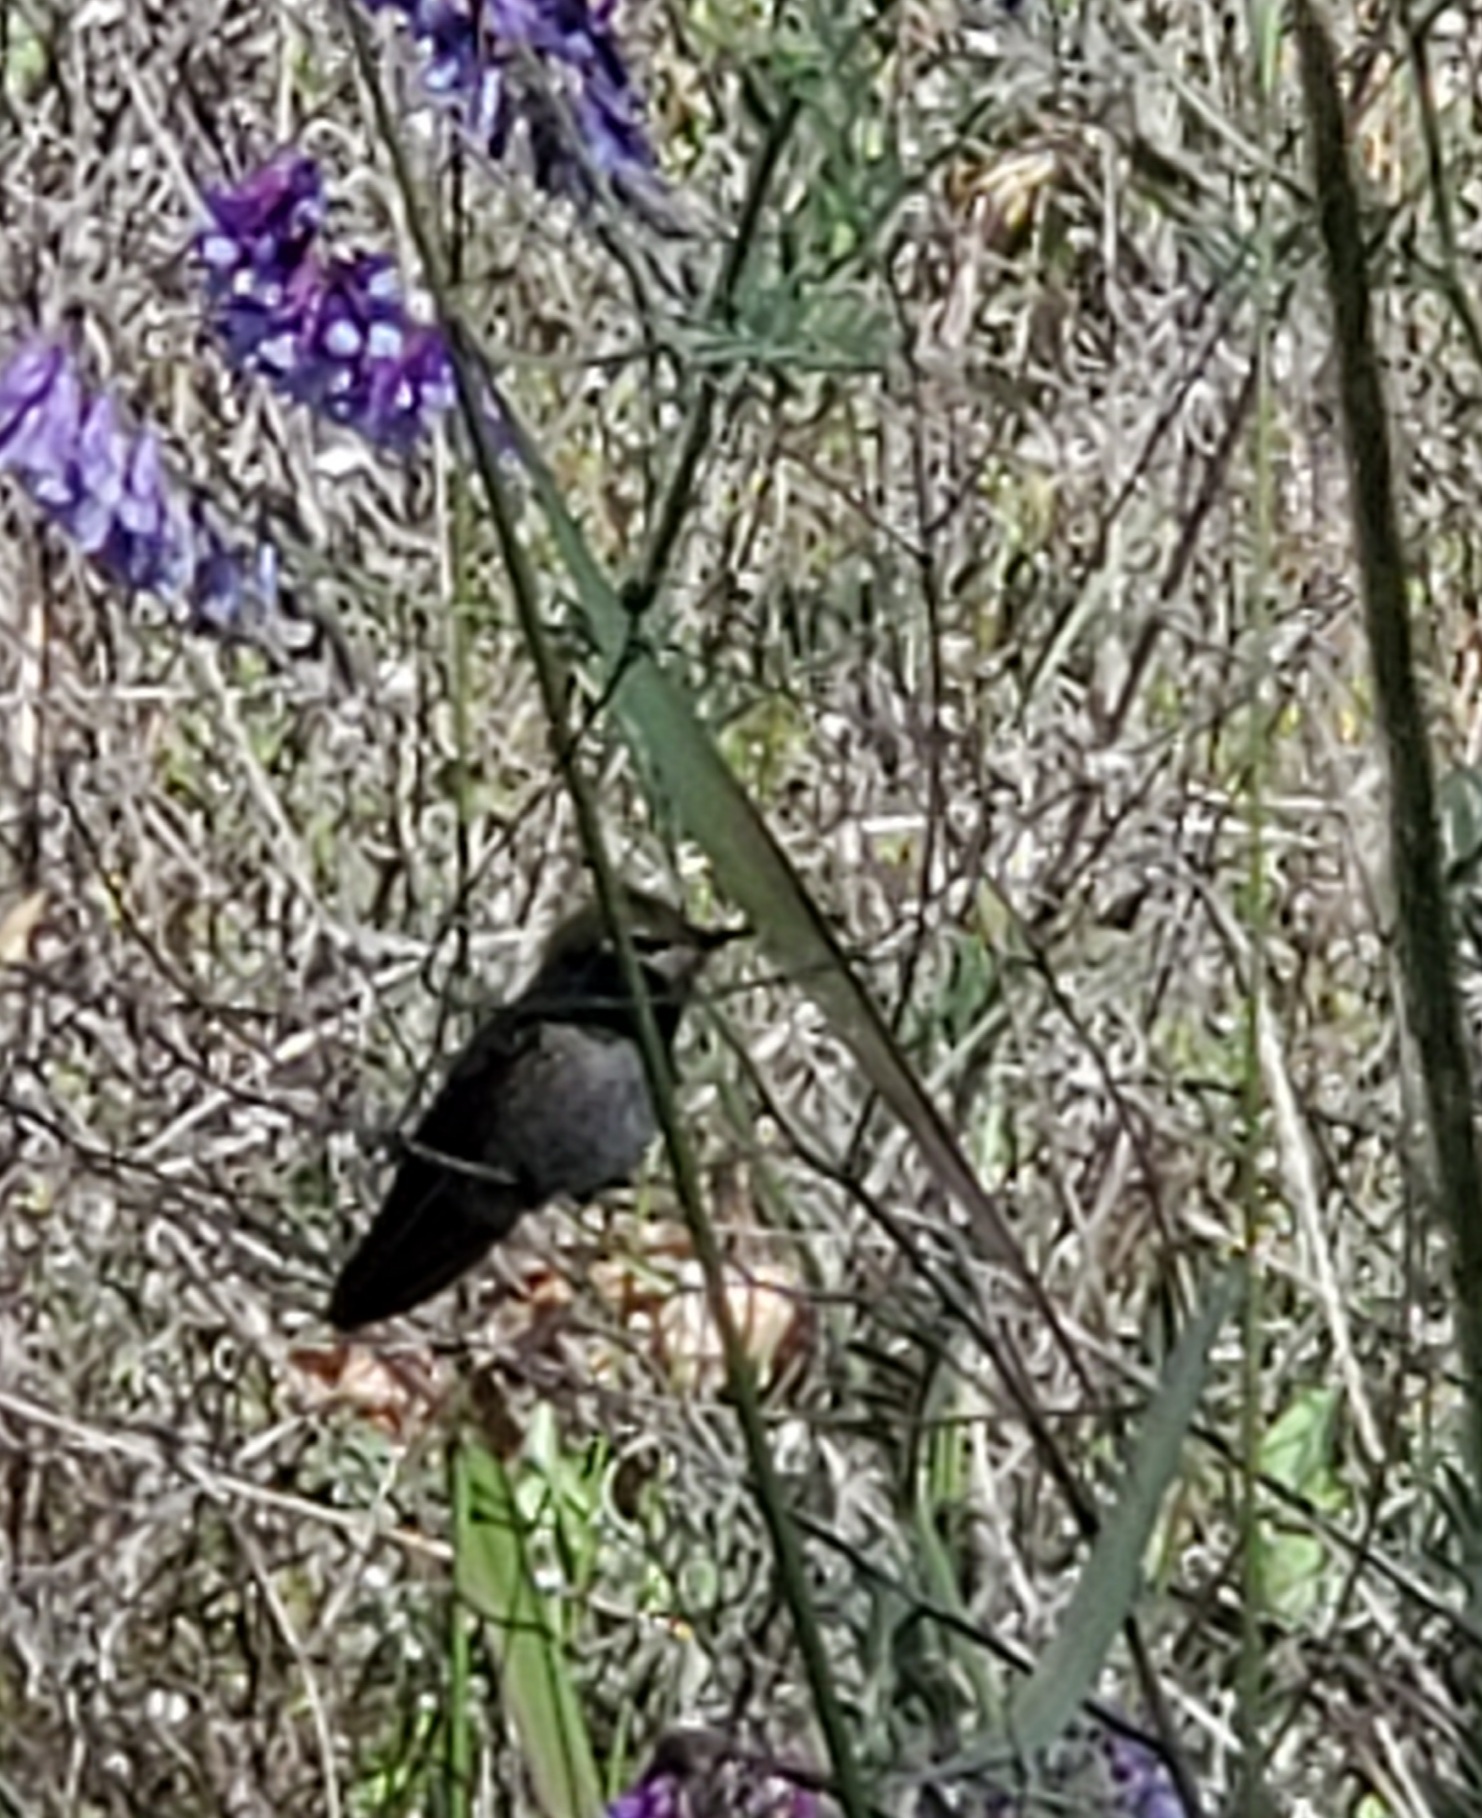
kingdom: Animalia
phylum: Chordata
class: Aves
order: Apodiformes
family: Trochilidae
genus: Calypte
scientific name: Calypte anna
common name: Anna's hummingbird
